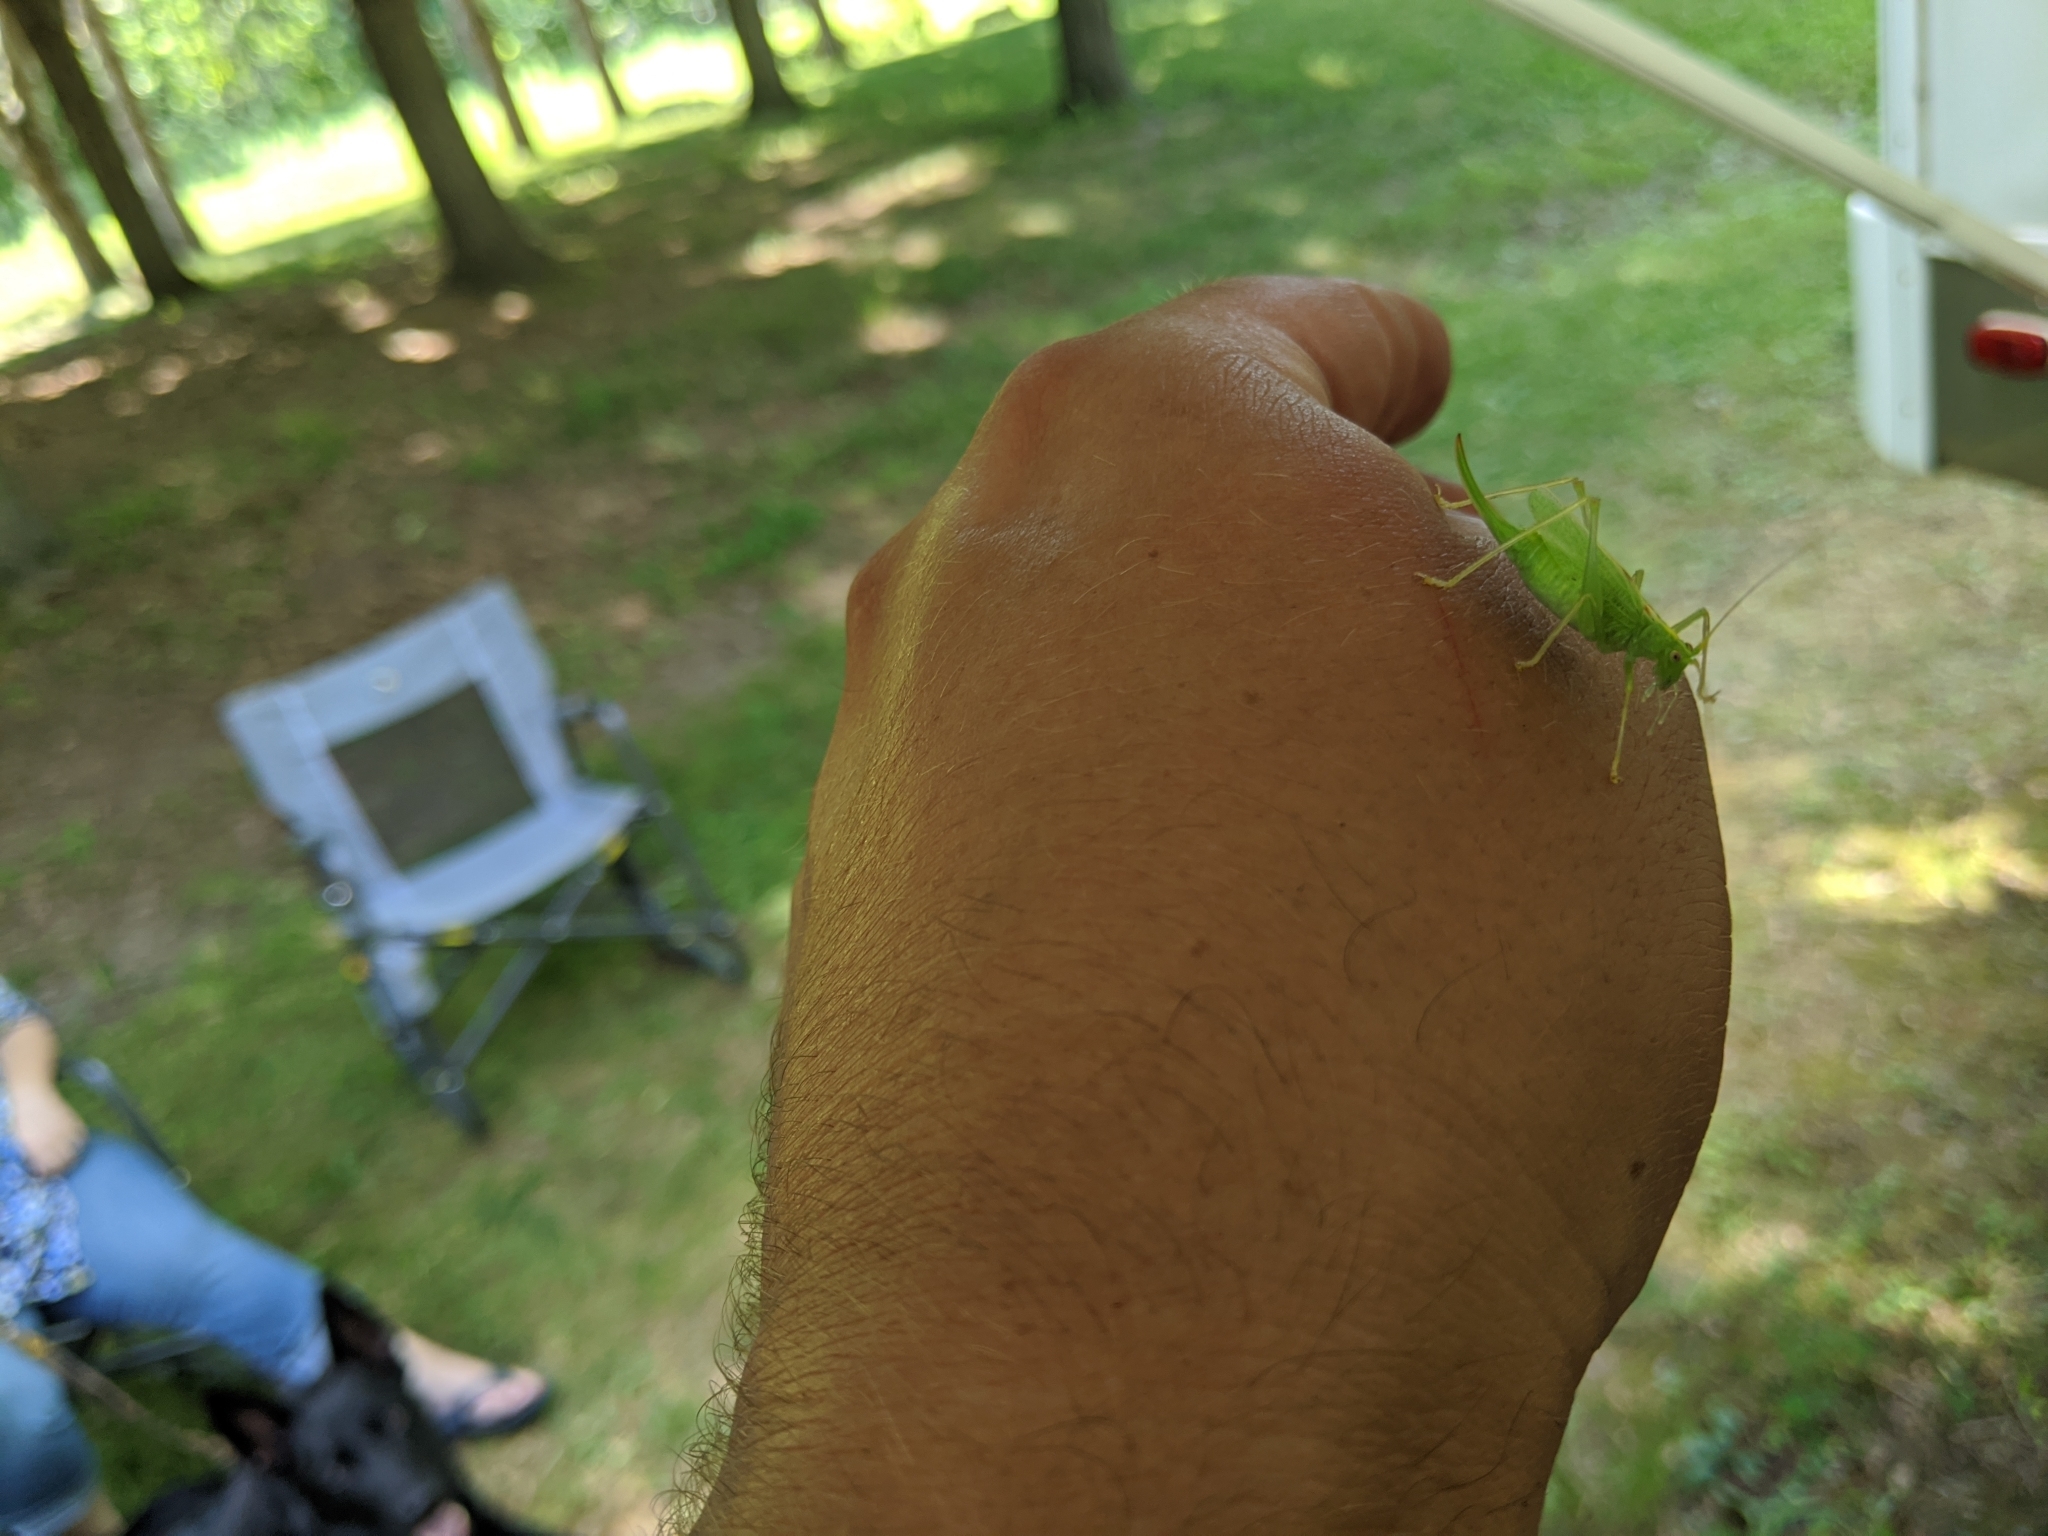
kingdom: Animalia
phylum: Arthropoda
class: Insecta
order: Orthoptera
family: Tettigoniidae
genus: Meconema
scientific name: Meconema thalassinum
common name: Oak bush-cricket
